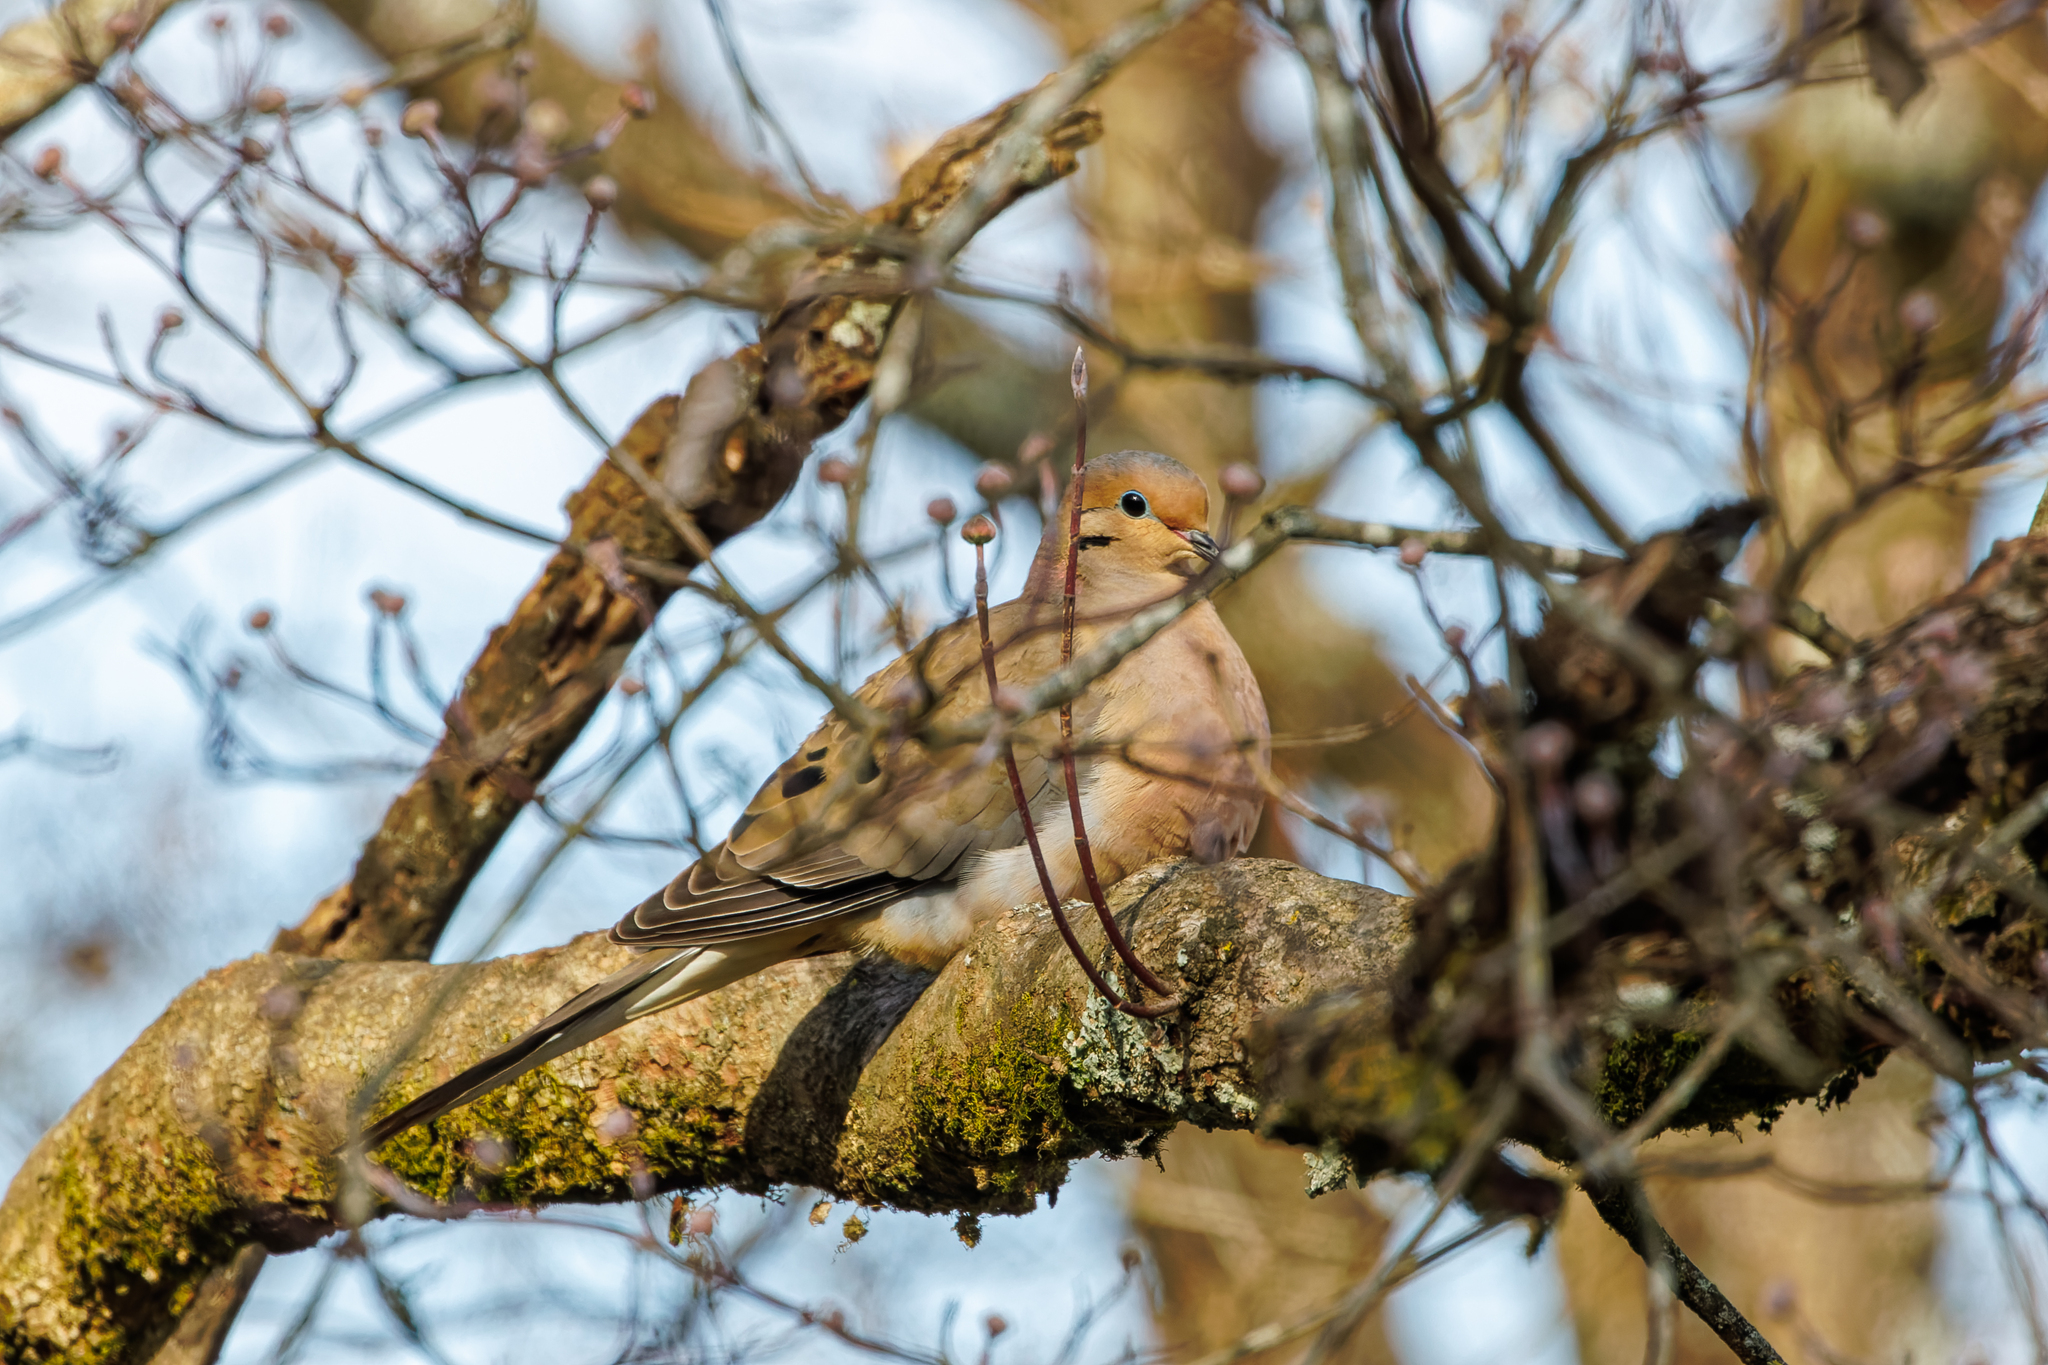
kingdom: Animalia
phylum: Chordata
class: Aves
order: Columbiformes
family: Columbidae
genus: Zenaida
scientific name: Zenaida macroura
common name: Mourning dove
